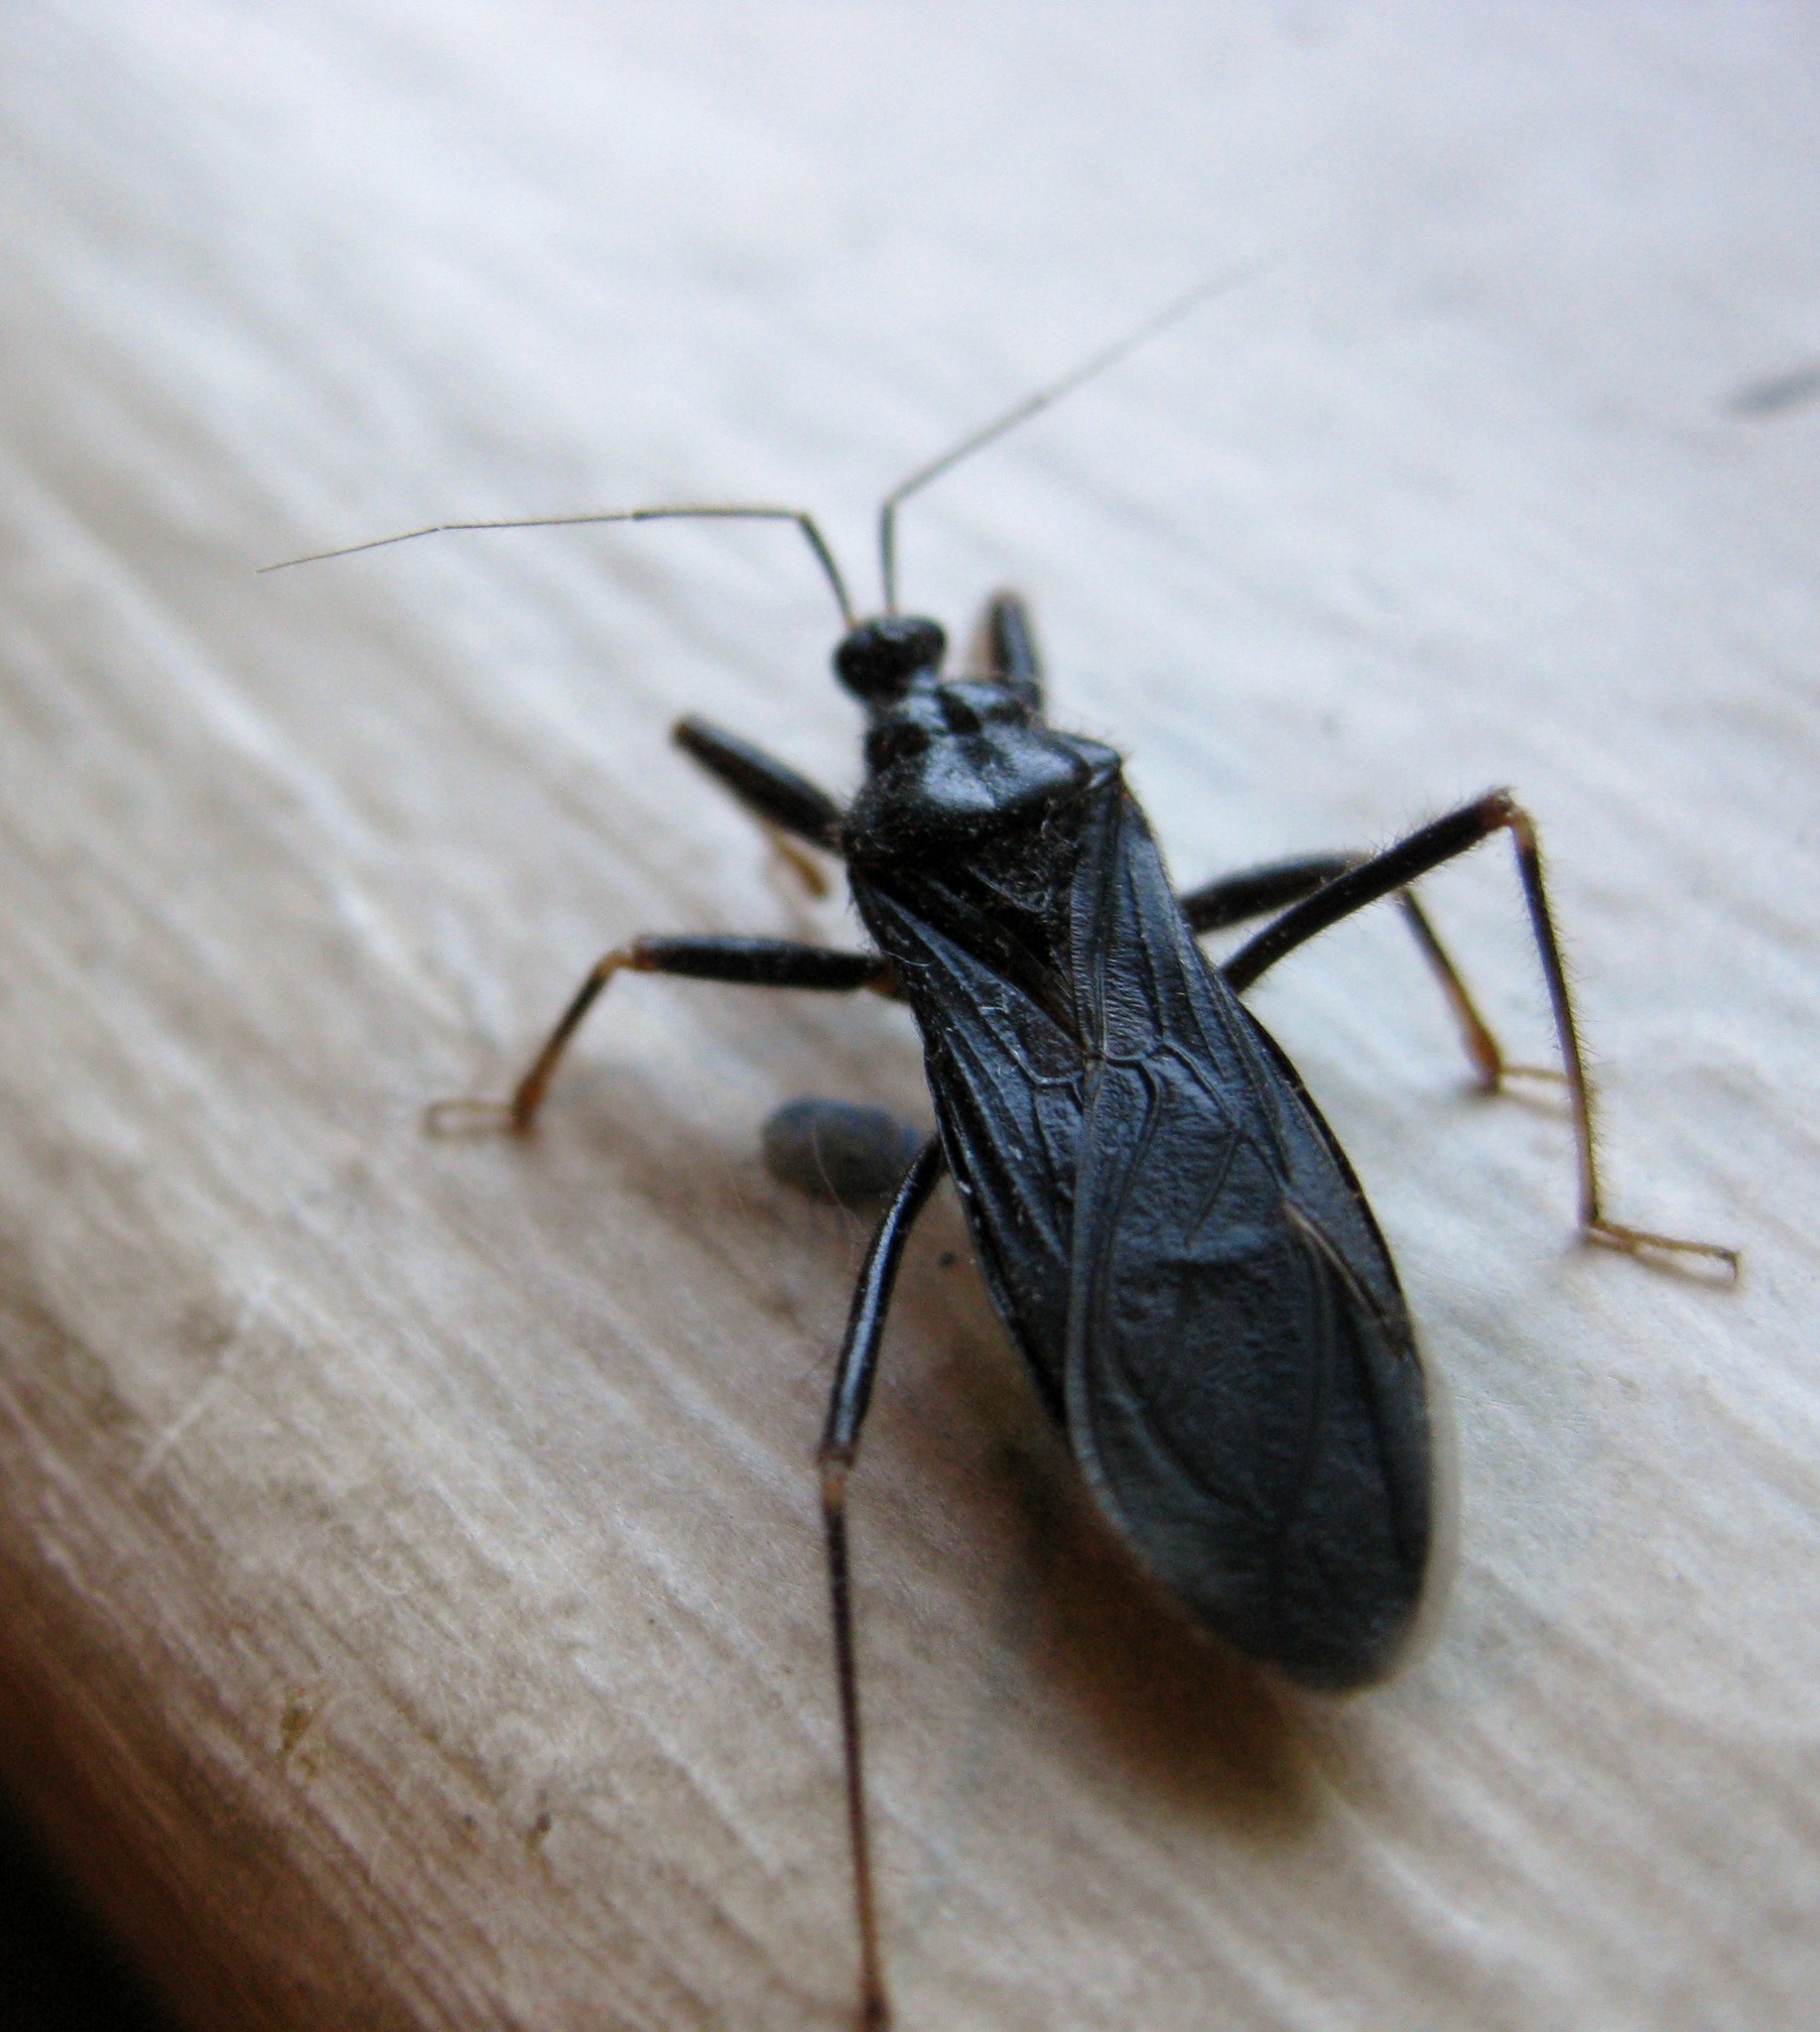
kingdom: Animalia
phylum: Arthropoda
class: Insecta
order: Hemiptera
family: Reduviidae
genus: Melanolestes
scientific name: Melanolestes picipes
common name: Assassin bug
